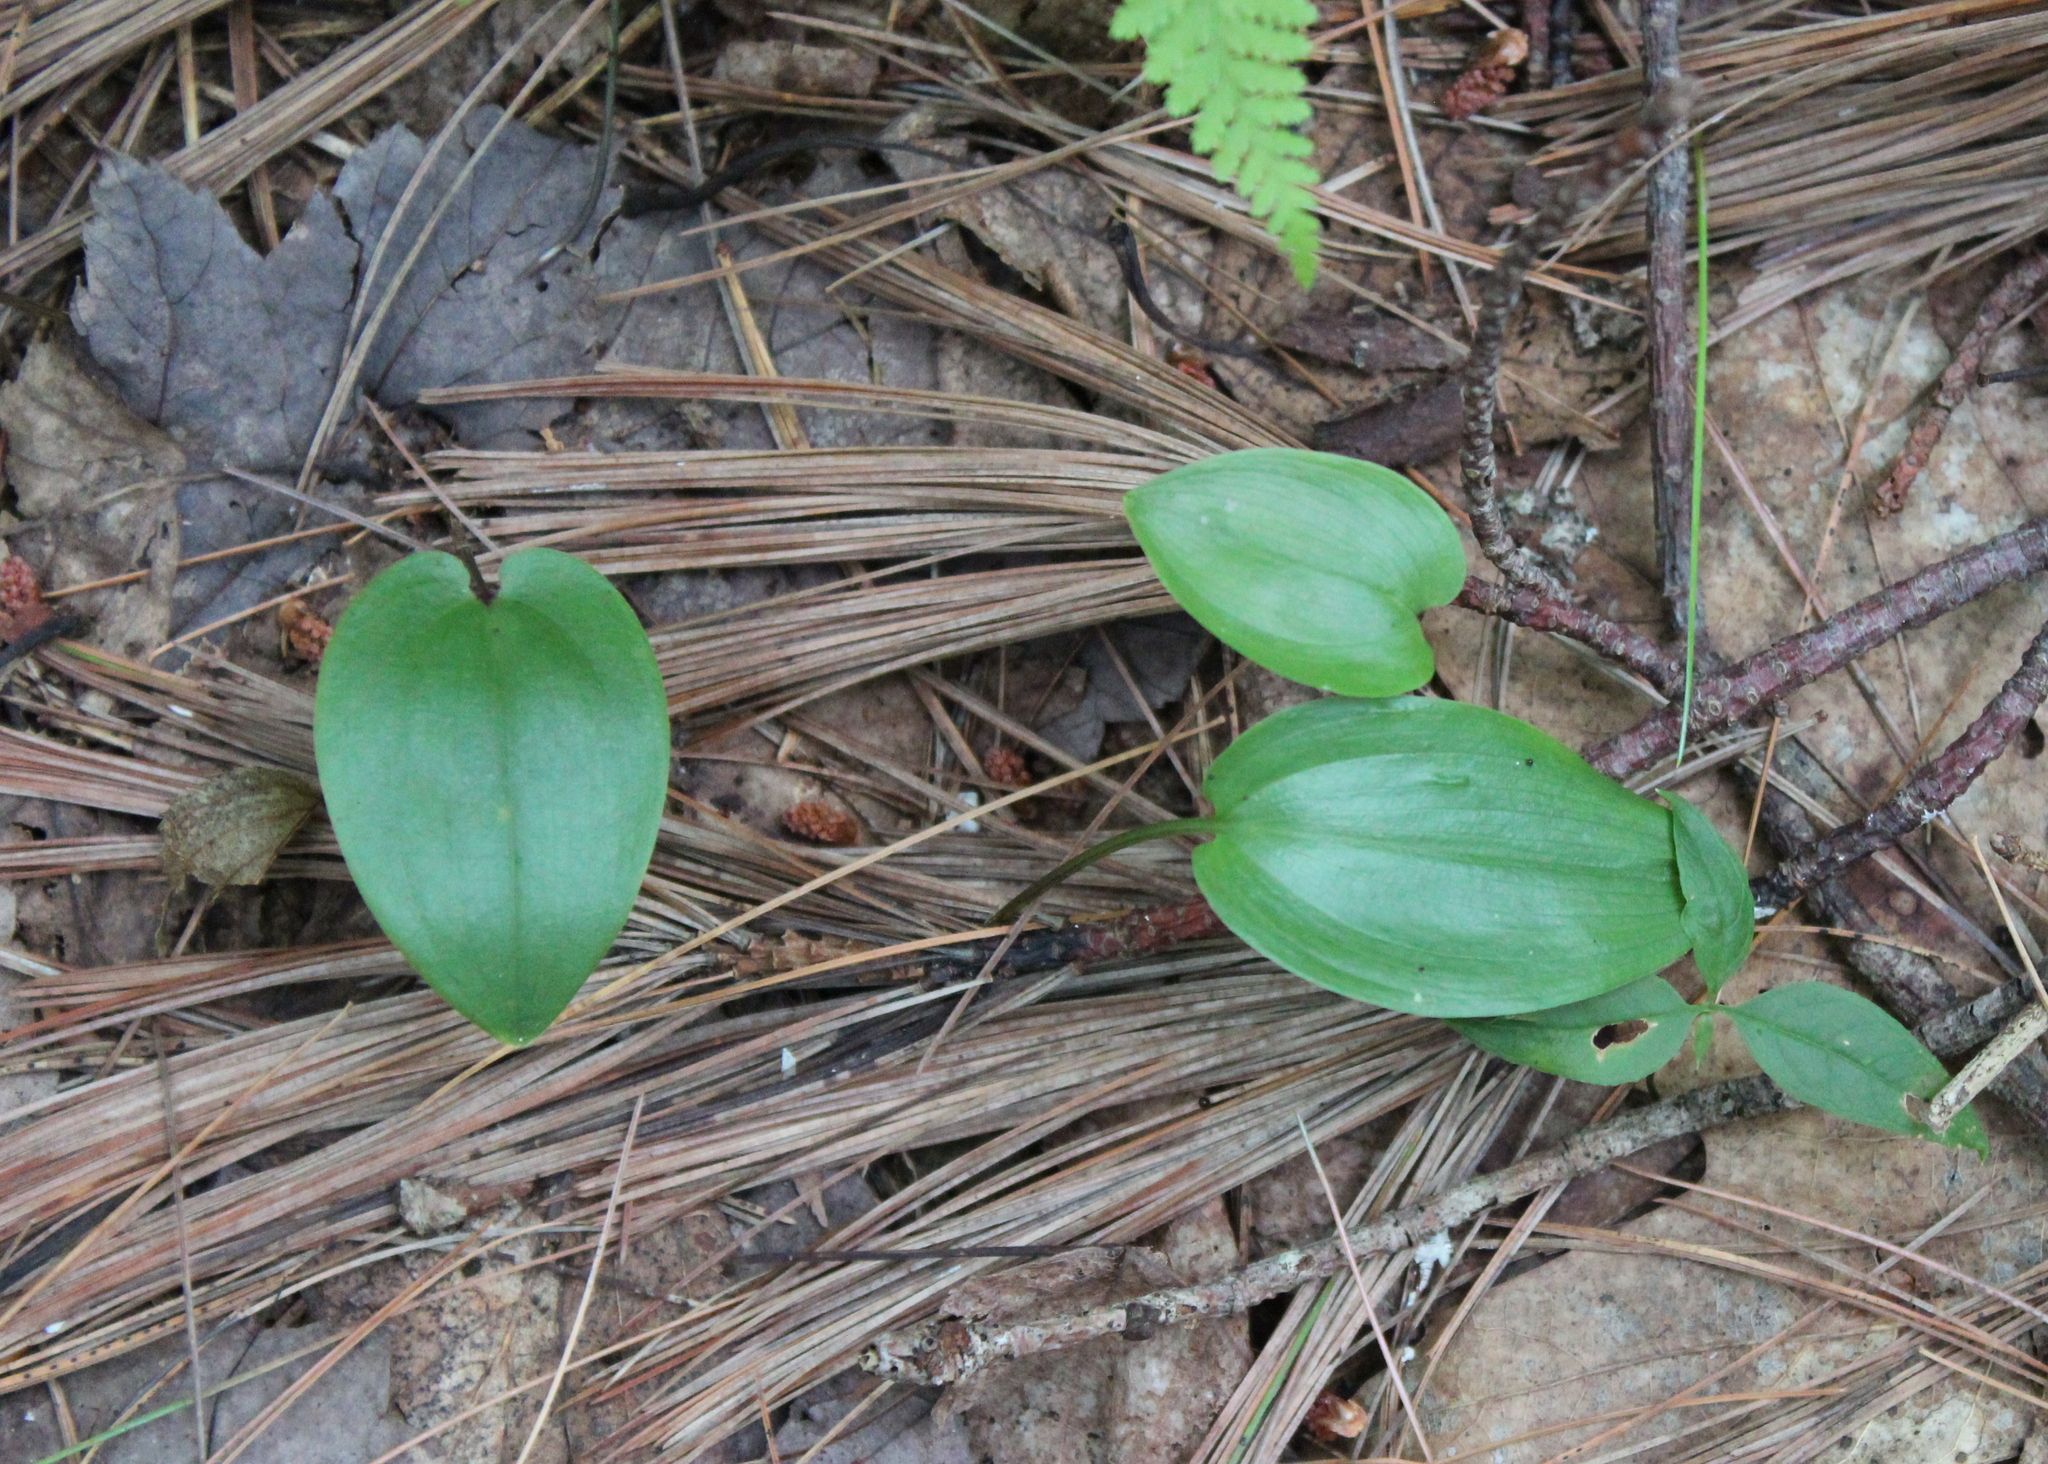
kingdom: Plantae
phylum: Tracheophyta
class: Liliopsida
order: Asparagales
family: Asparagaceae
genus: Maianthemum
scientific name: Maianthemum canadense
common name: False lily-of-the-valley
